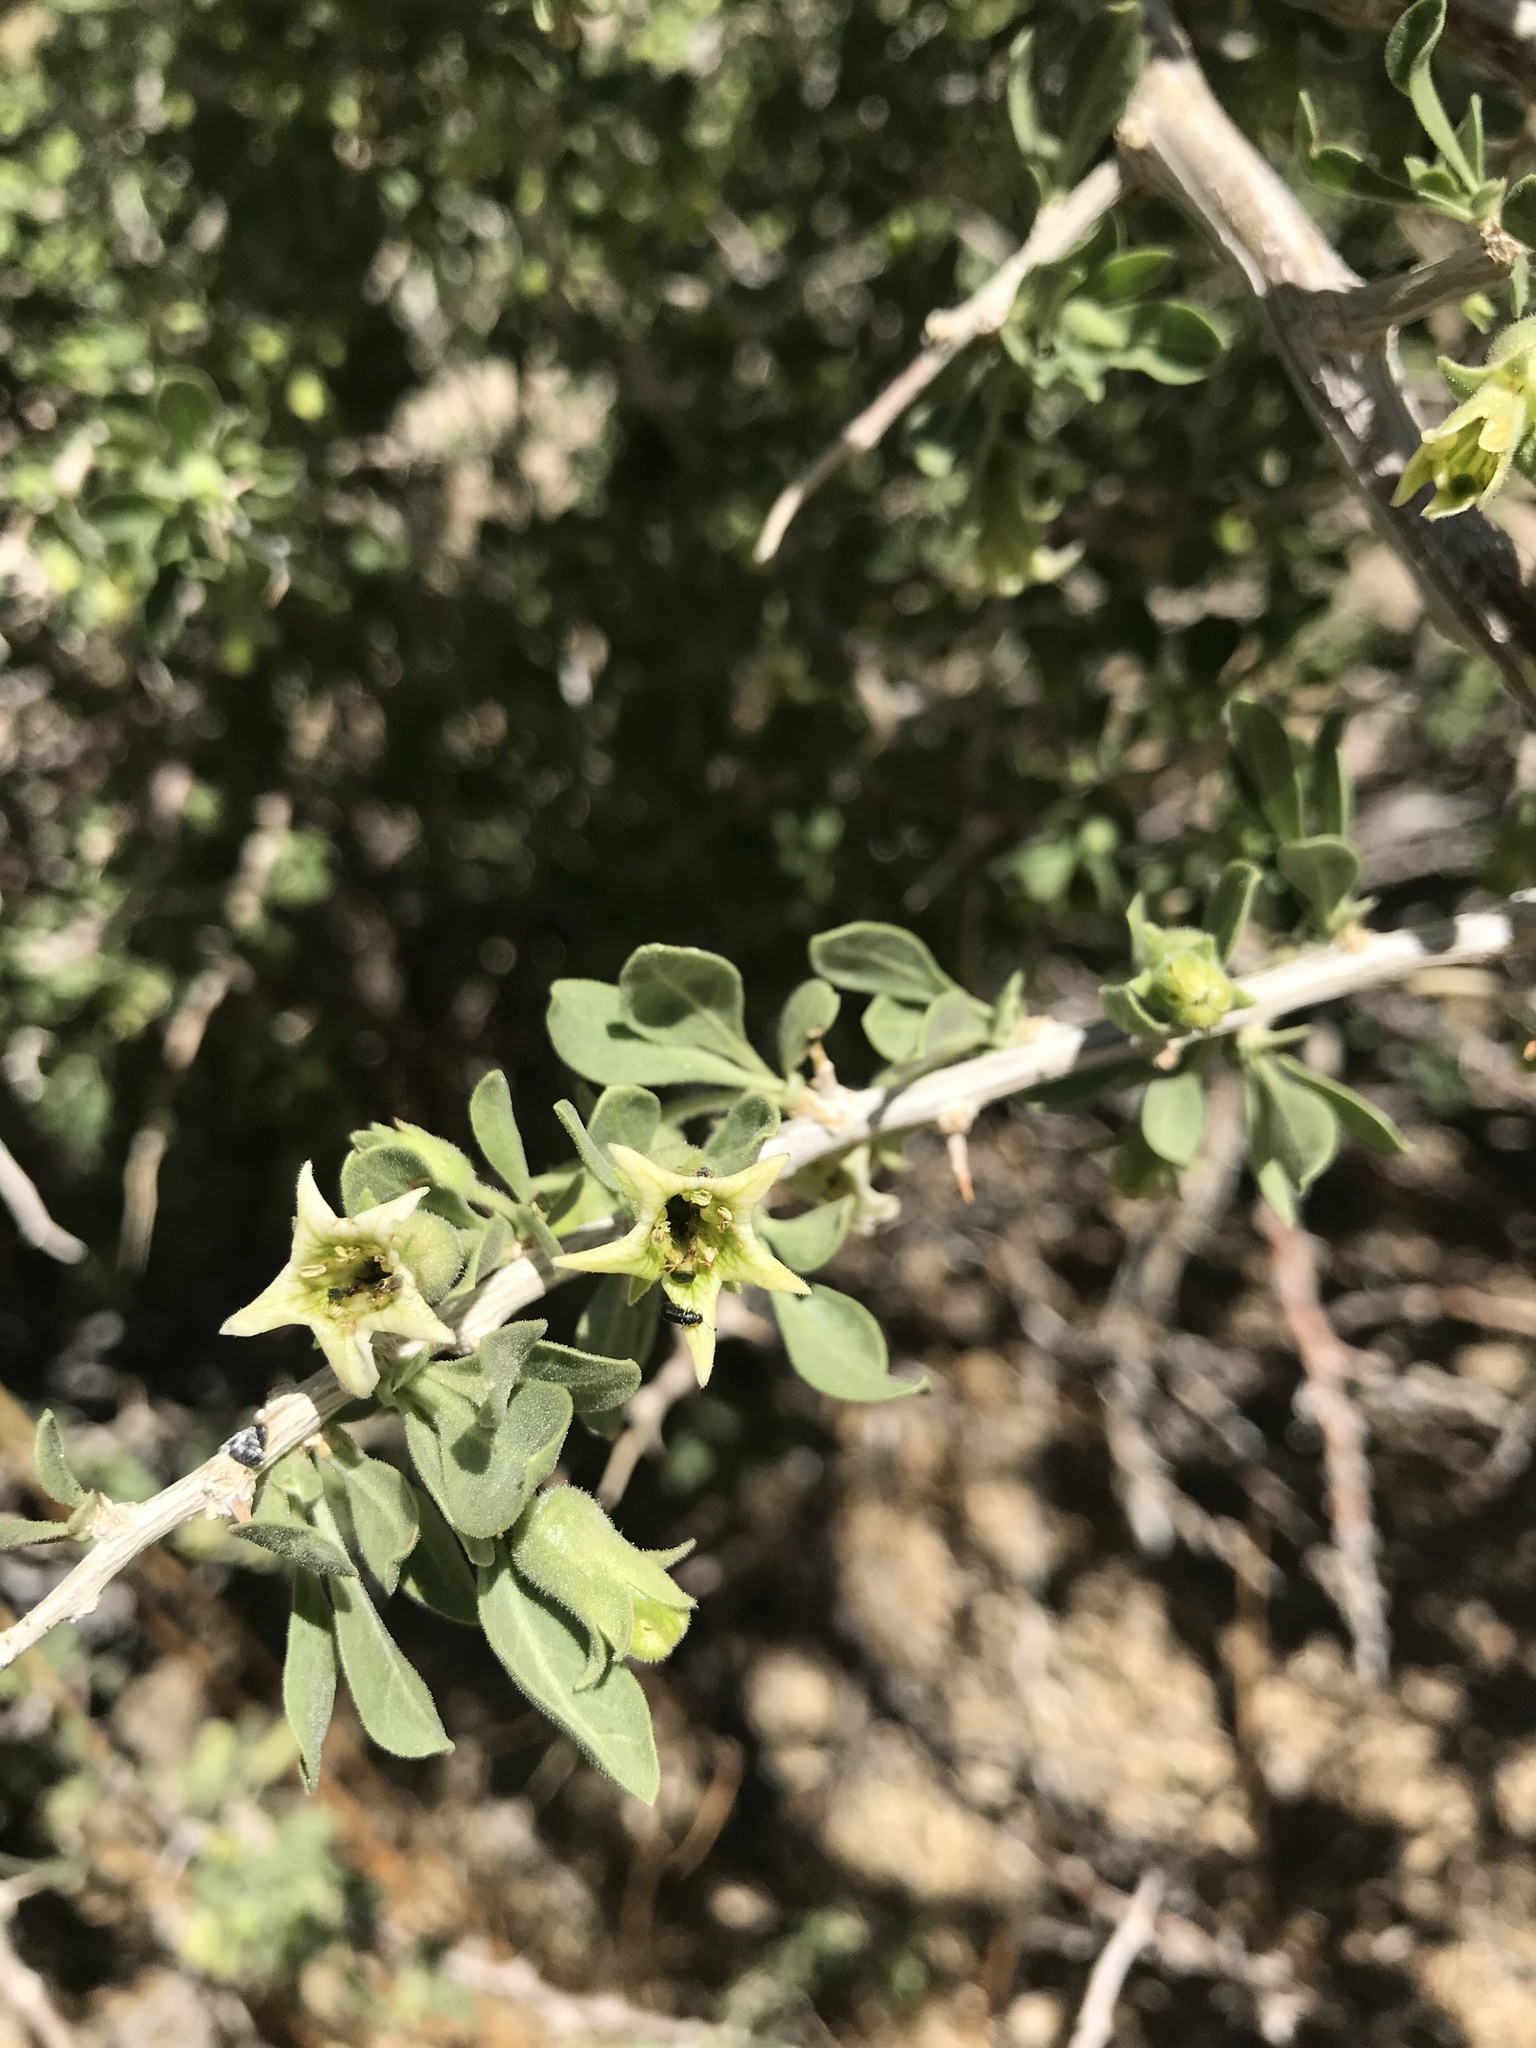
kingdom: Plantae
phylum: Tracheophyta
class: Magnoliopsida
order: Solanales
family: Solanaceae
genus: Lycium
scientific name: Lycium cooperi
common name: Peachthorn
